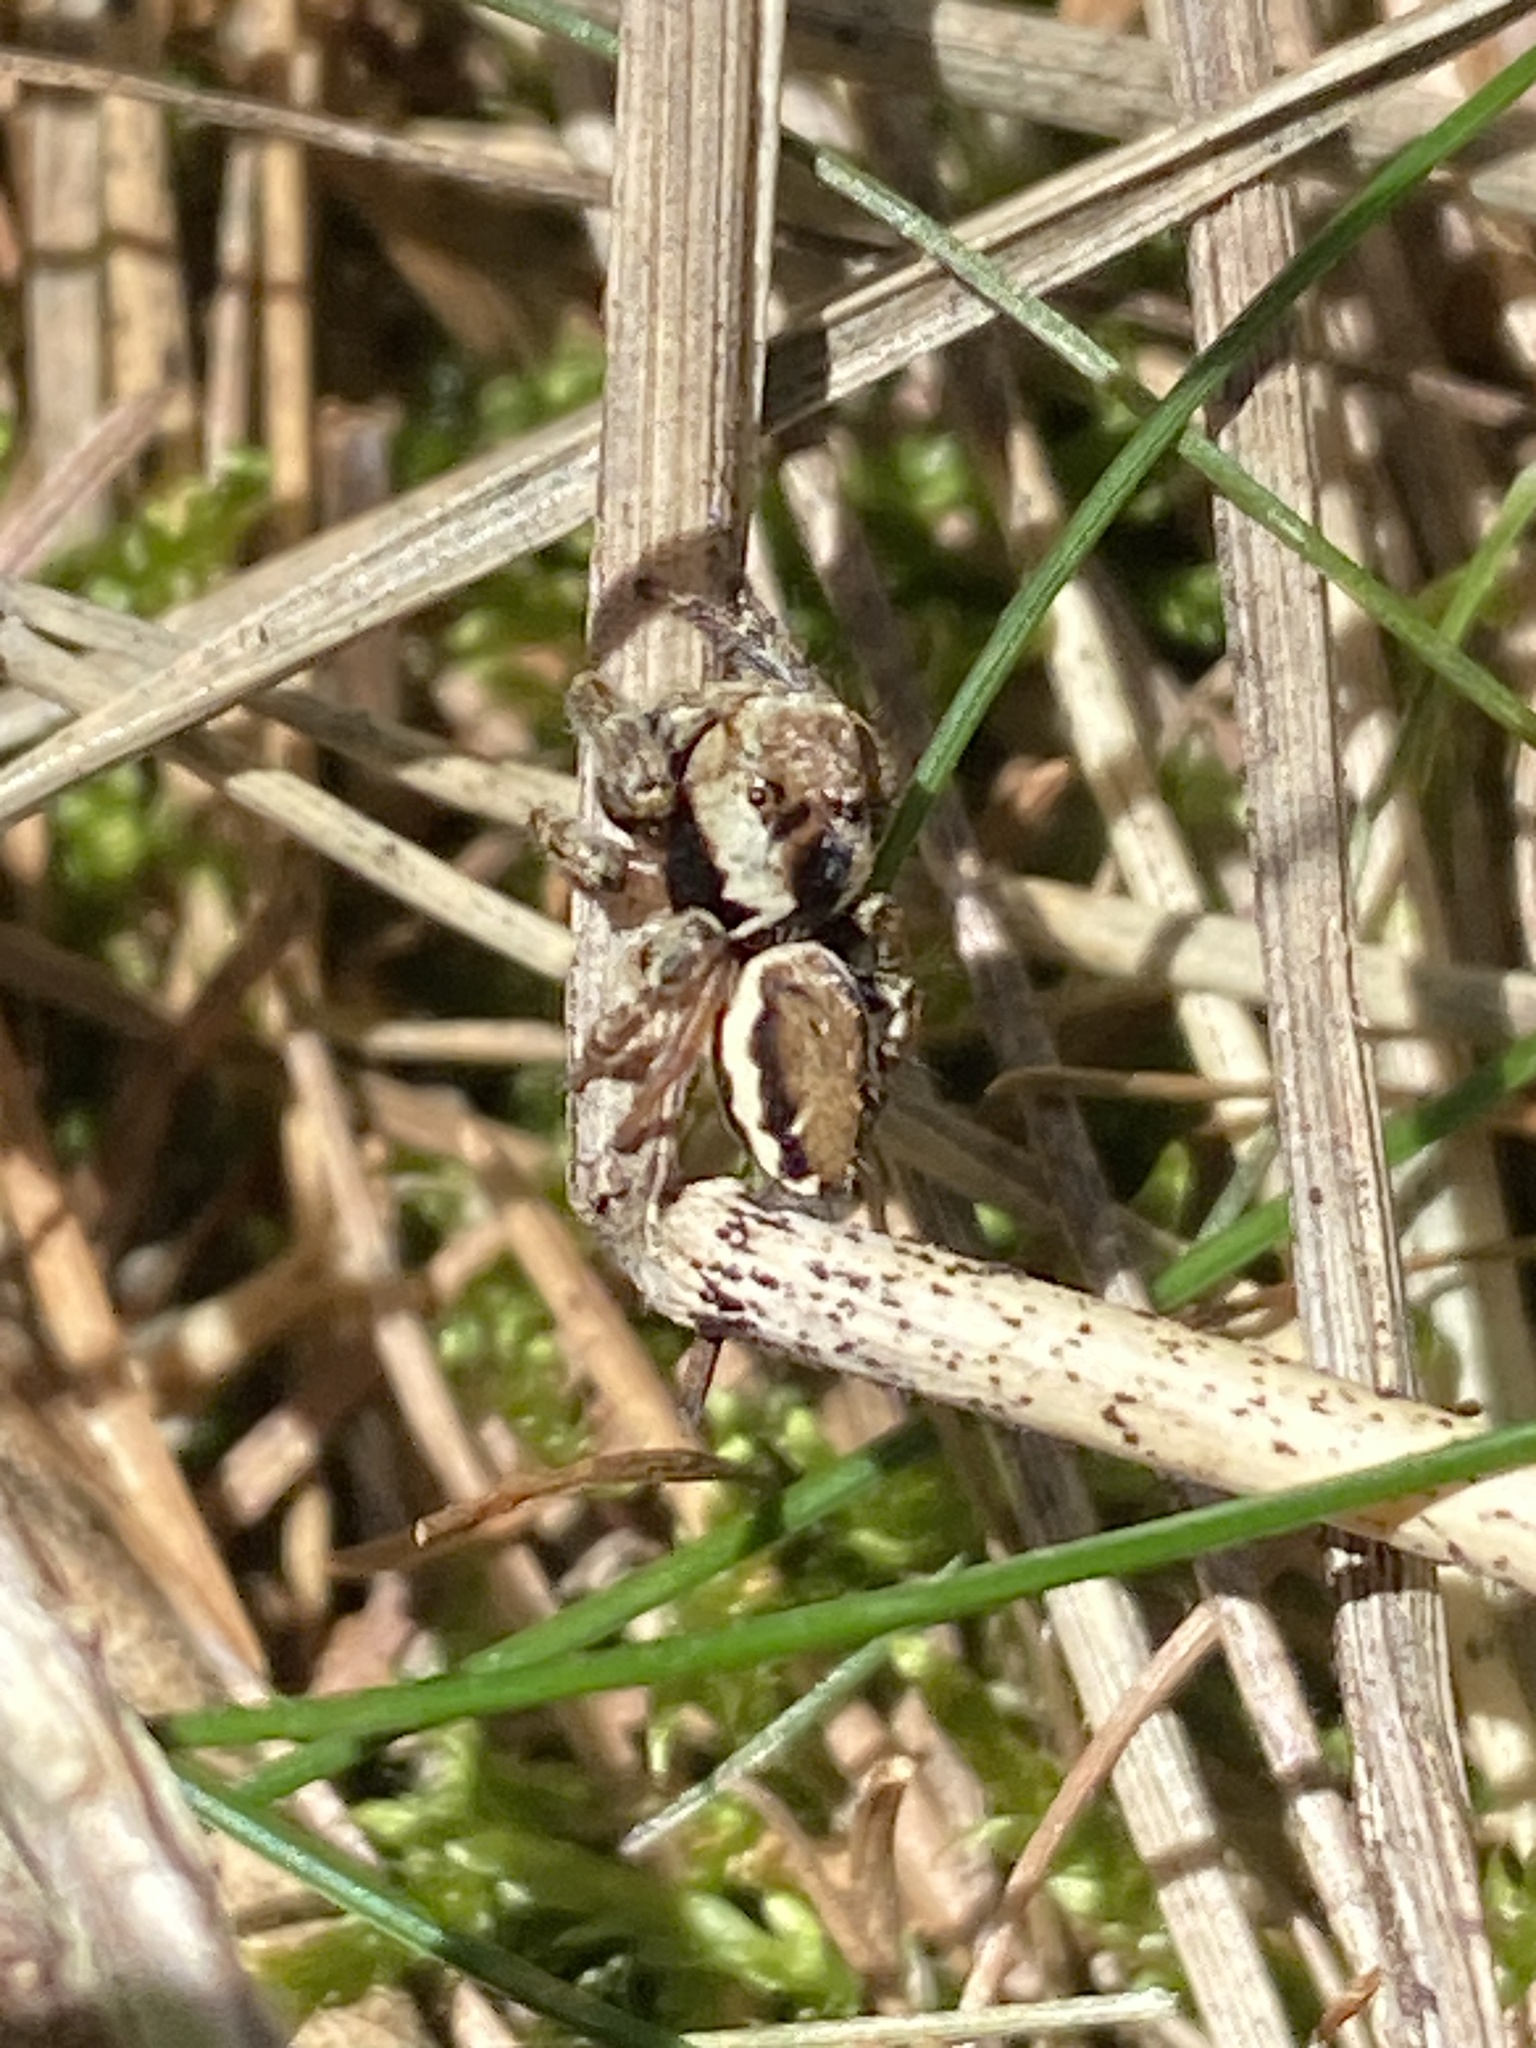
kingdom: Animalia
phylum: Arthropoda
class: Arachnida
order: Araneae
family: Salticidae
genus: Evarcha
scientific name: Evarcha falcata
